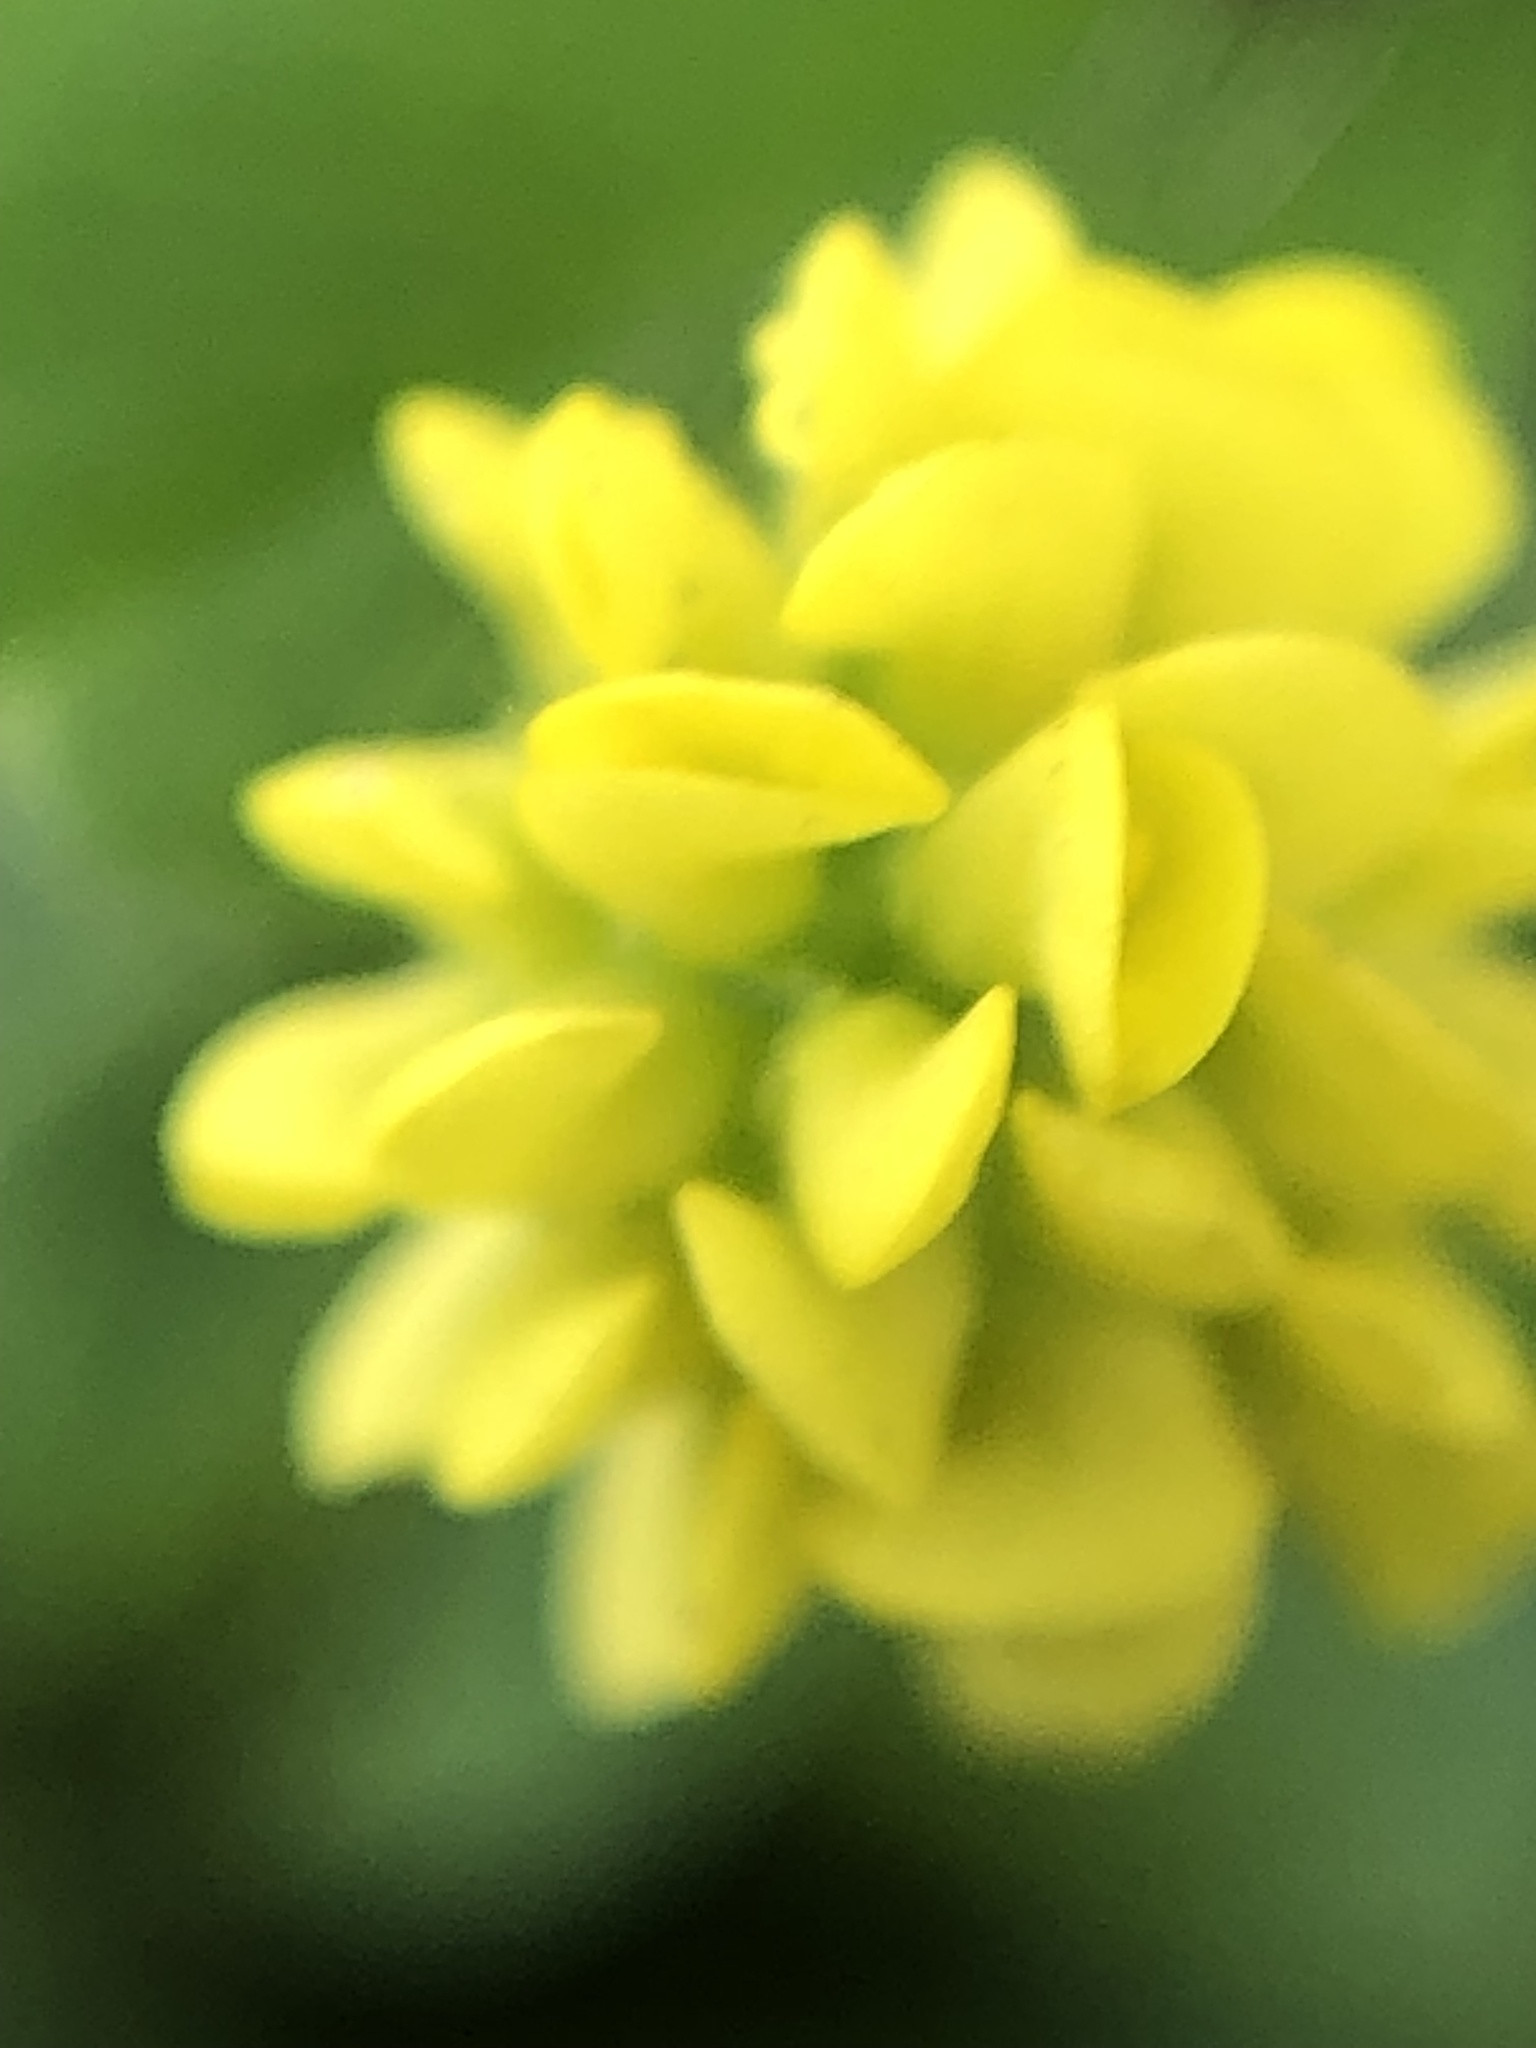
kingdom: Plantae
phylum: Tracheophyta
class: Magnoliopsida
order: Fabales
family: Fabaceae
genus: Medicago
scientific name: Medicago lupulina
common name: Black medick
